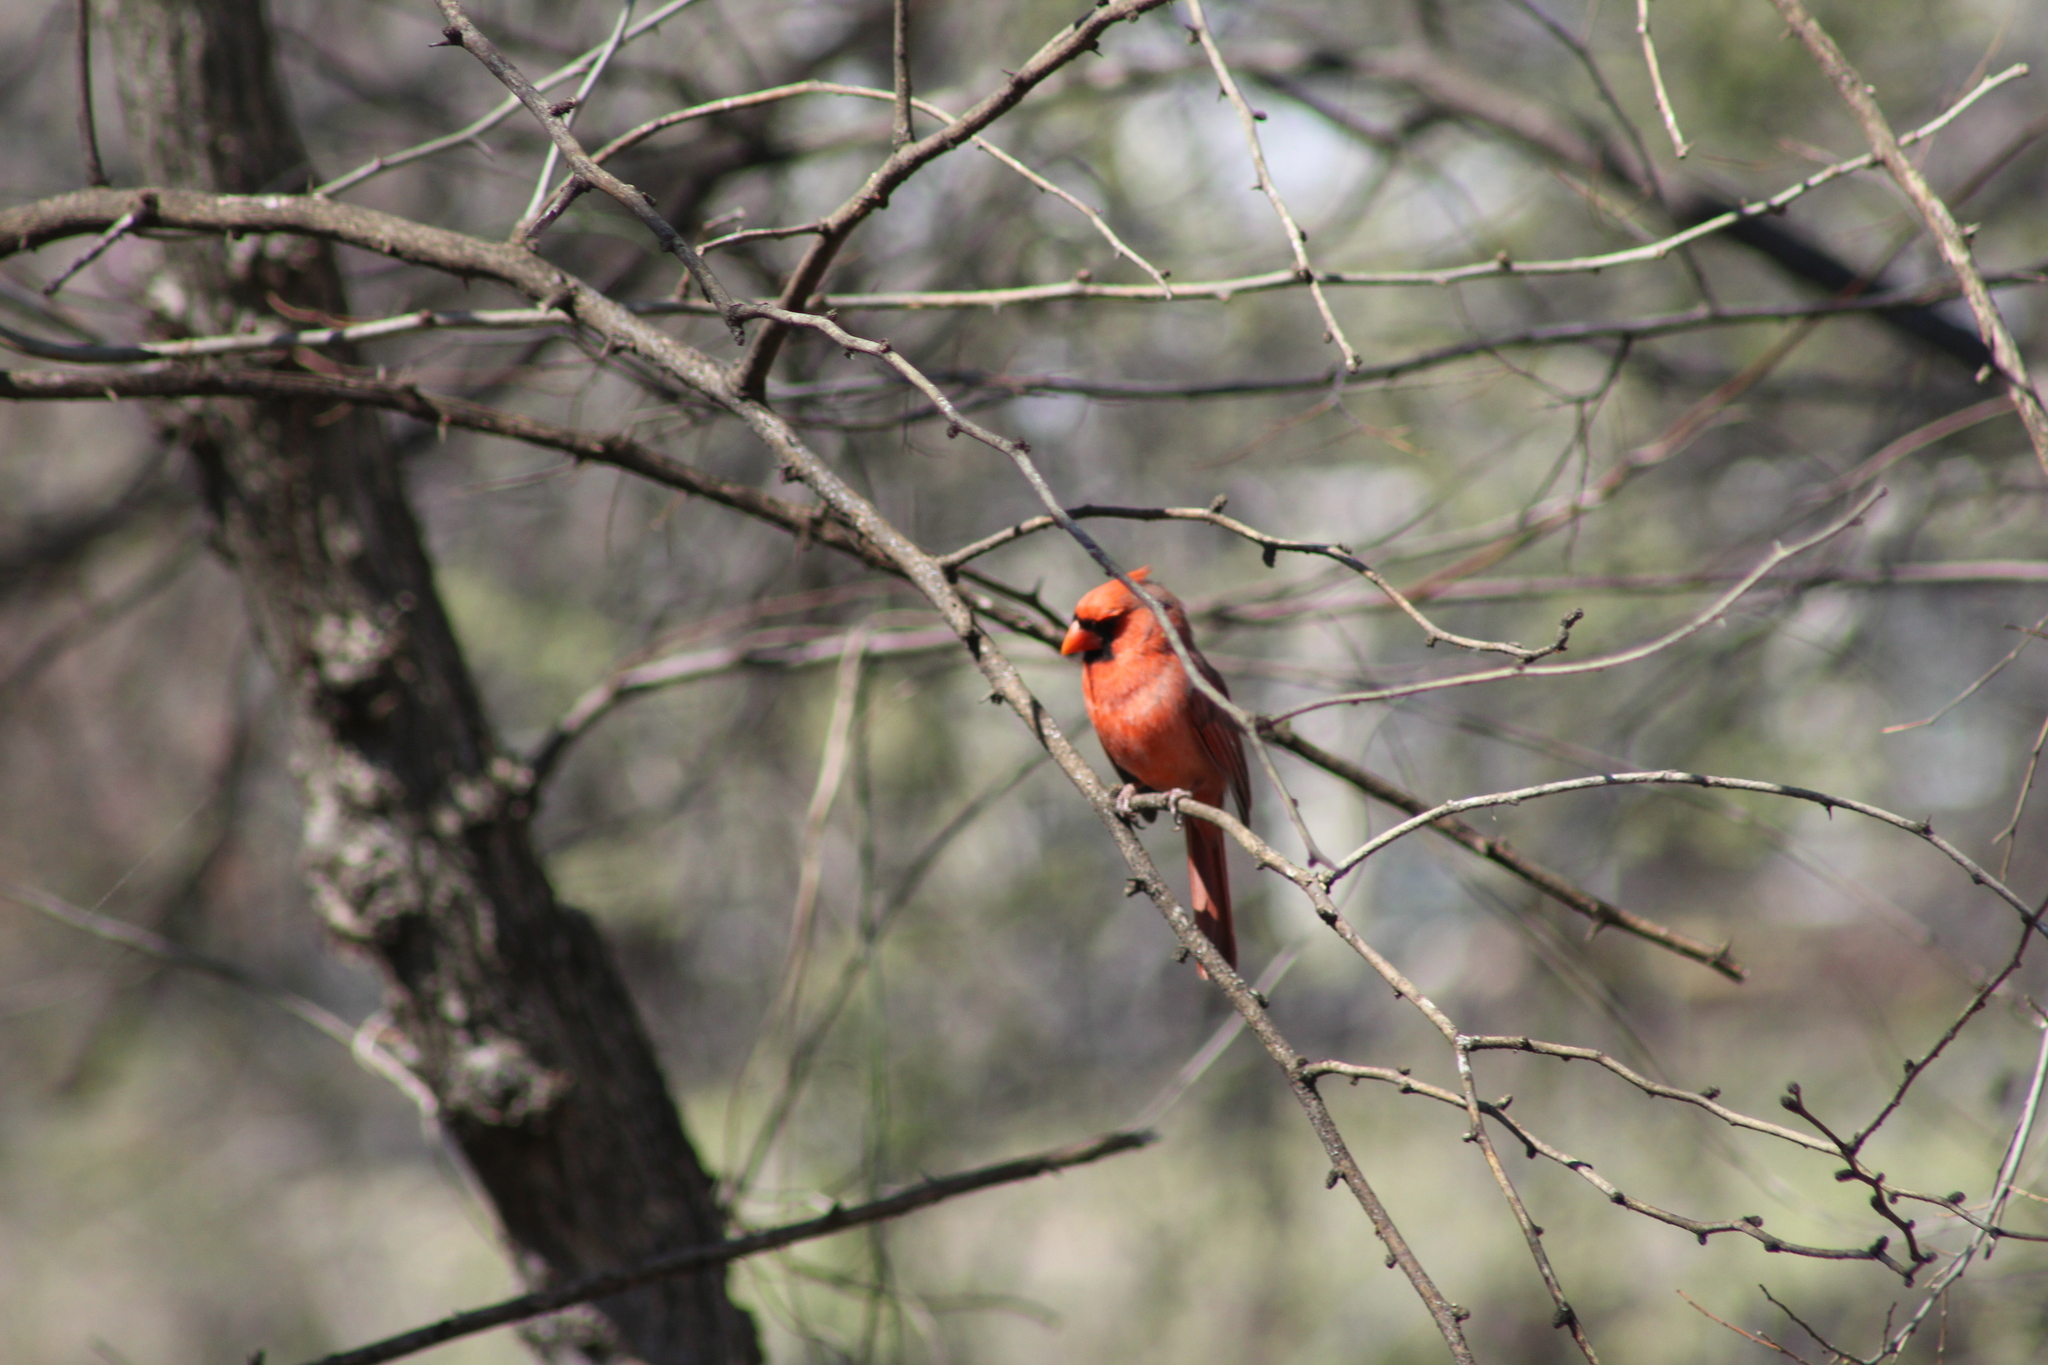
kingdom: Animalia
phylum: Chordata
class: Aves
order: Passeriformes
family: Cardinalidae
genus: Cardinalis
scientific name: Cardinalis cardinalis
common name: Northern cardinal
